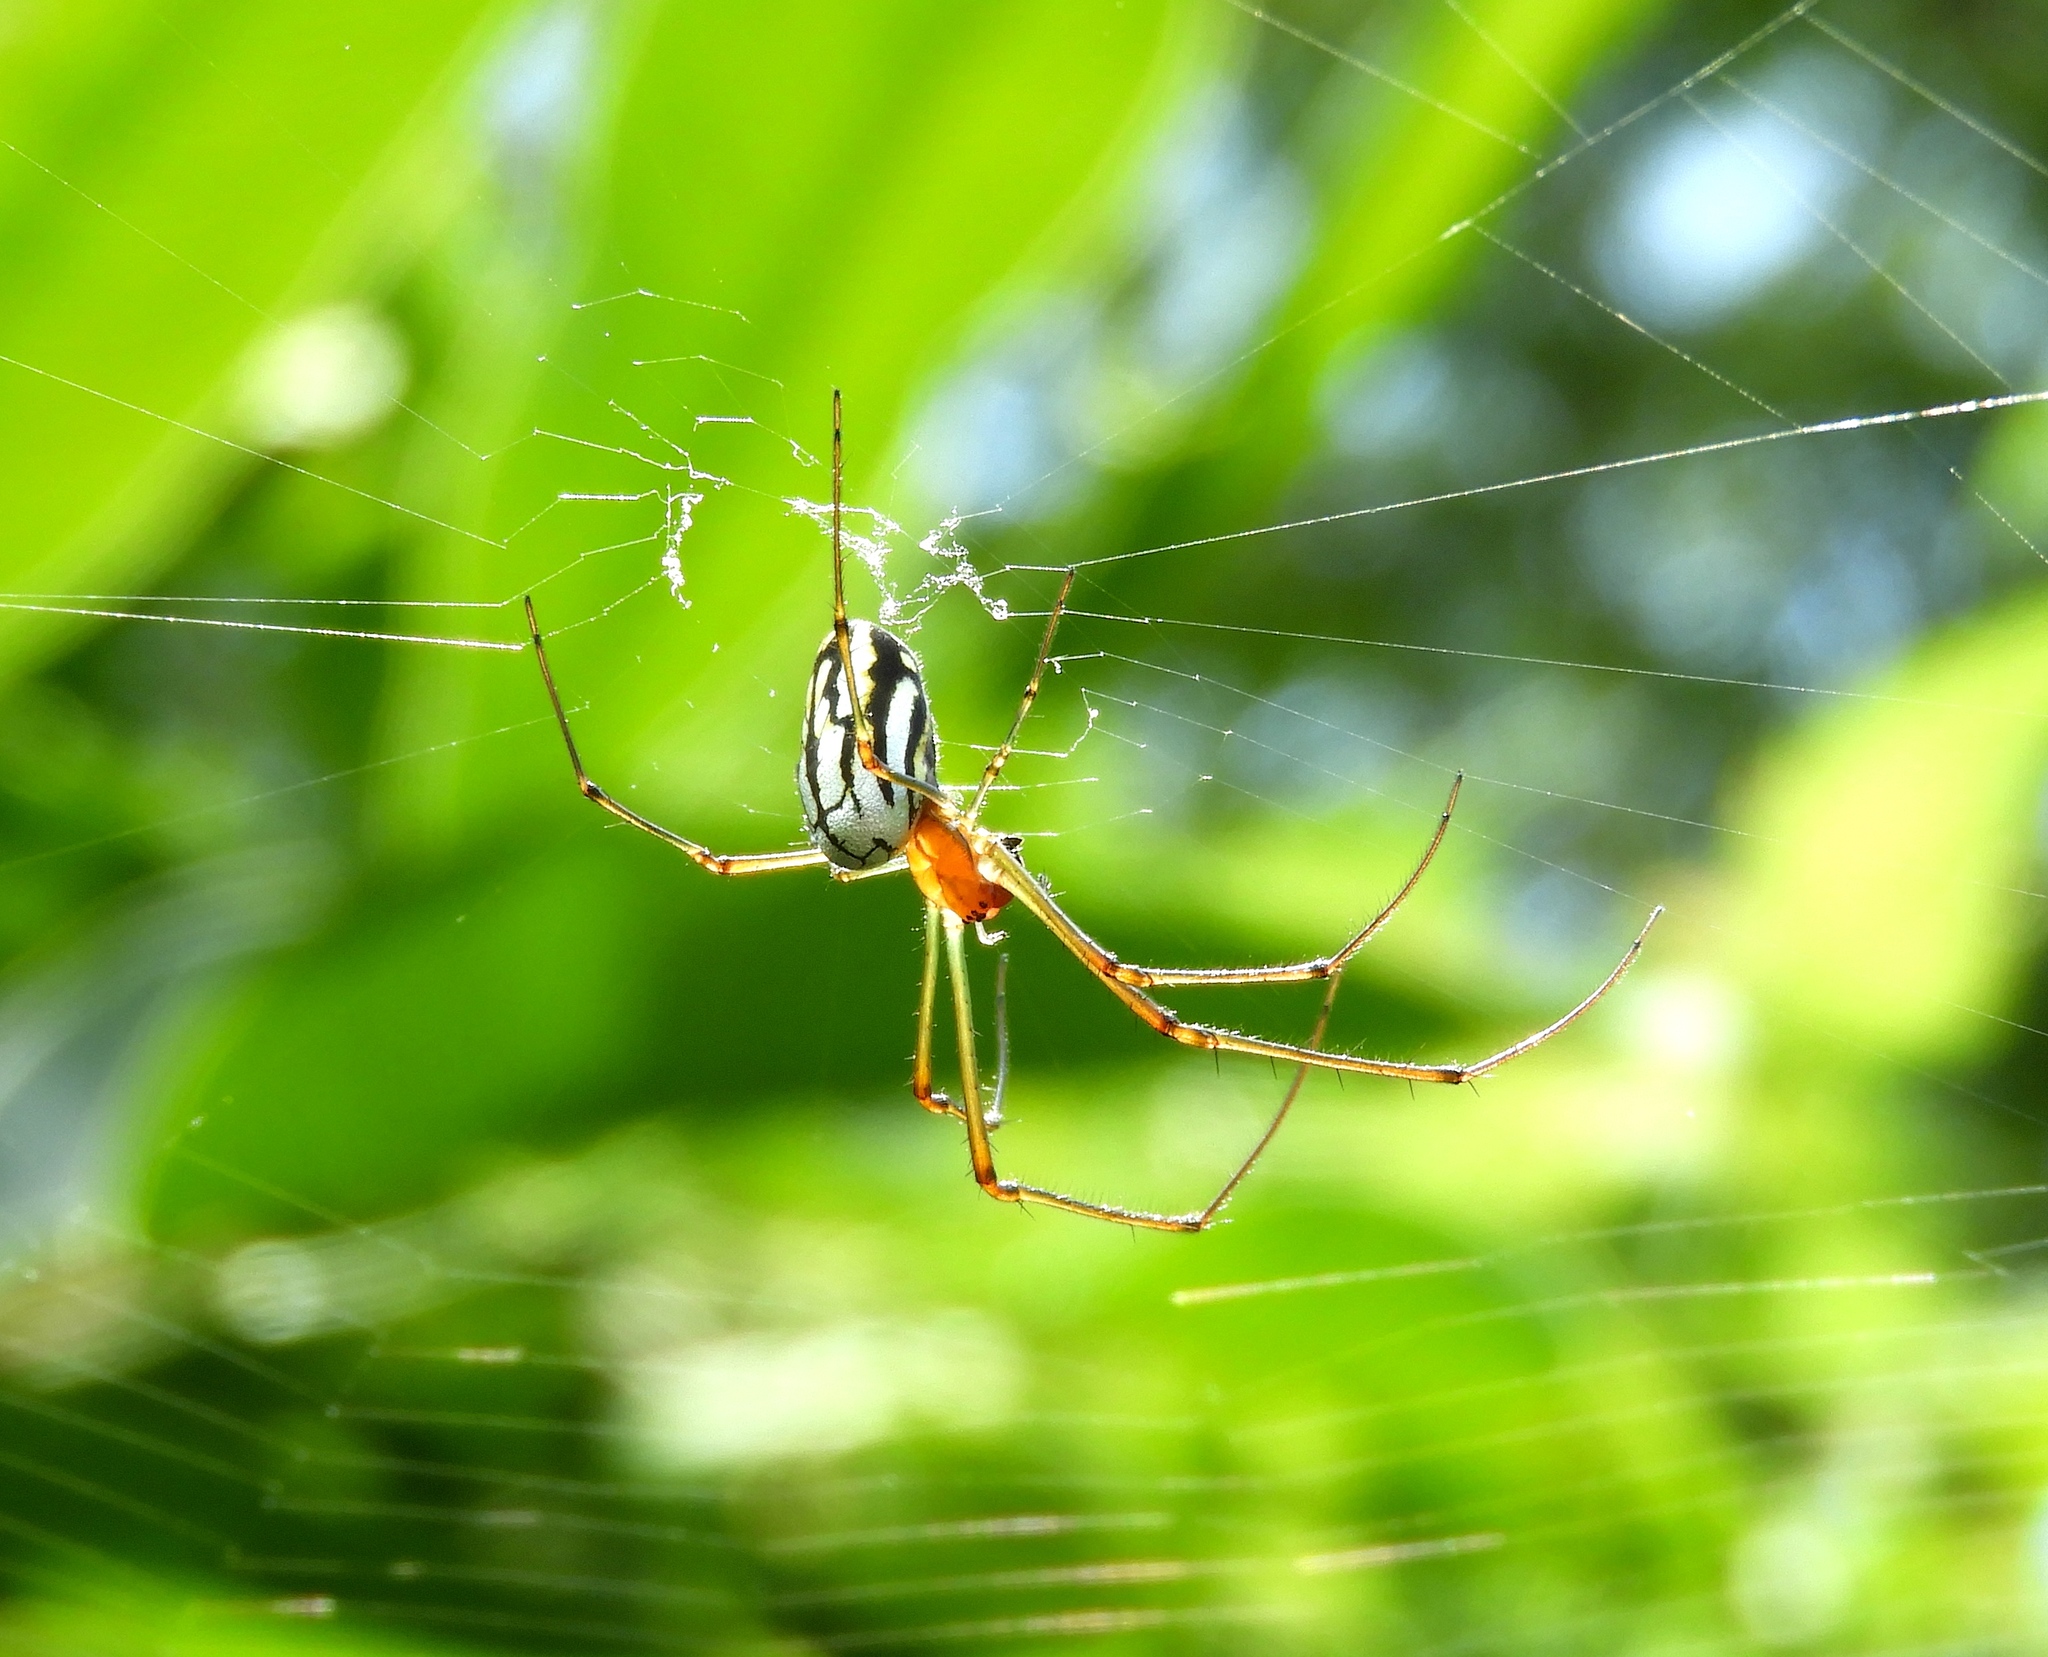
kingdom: Animalia
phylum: Arthropoda
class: Arachnida
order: Araneae
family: Tetragnathidae
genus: Leucauge
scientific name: Leucauge
